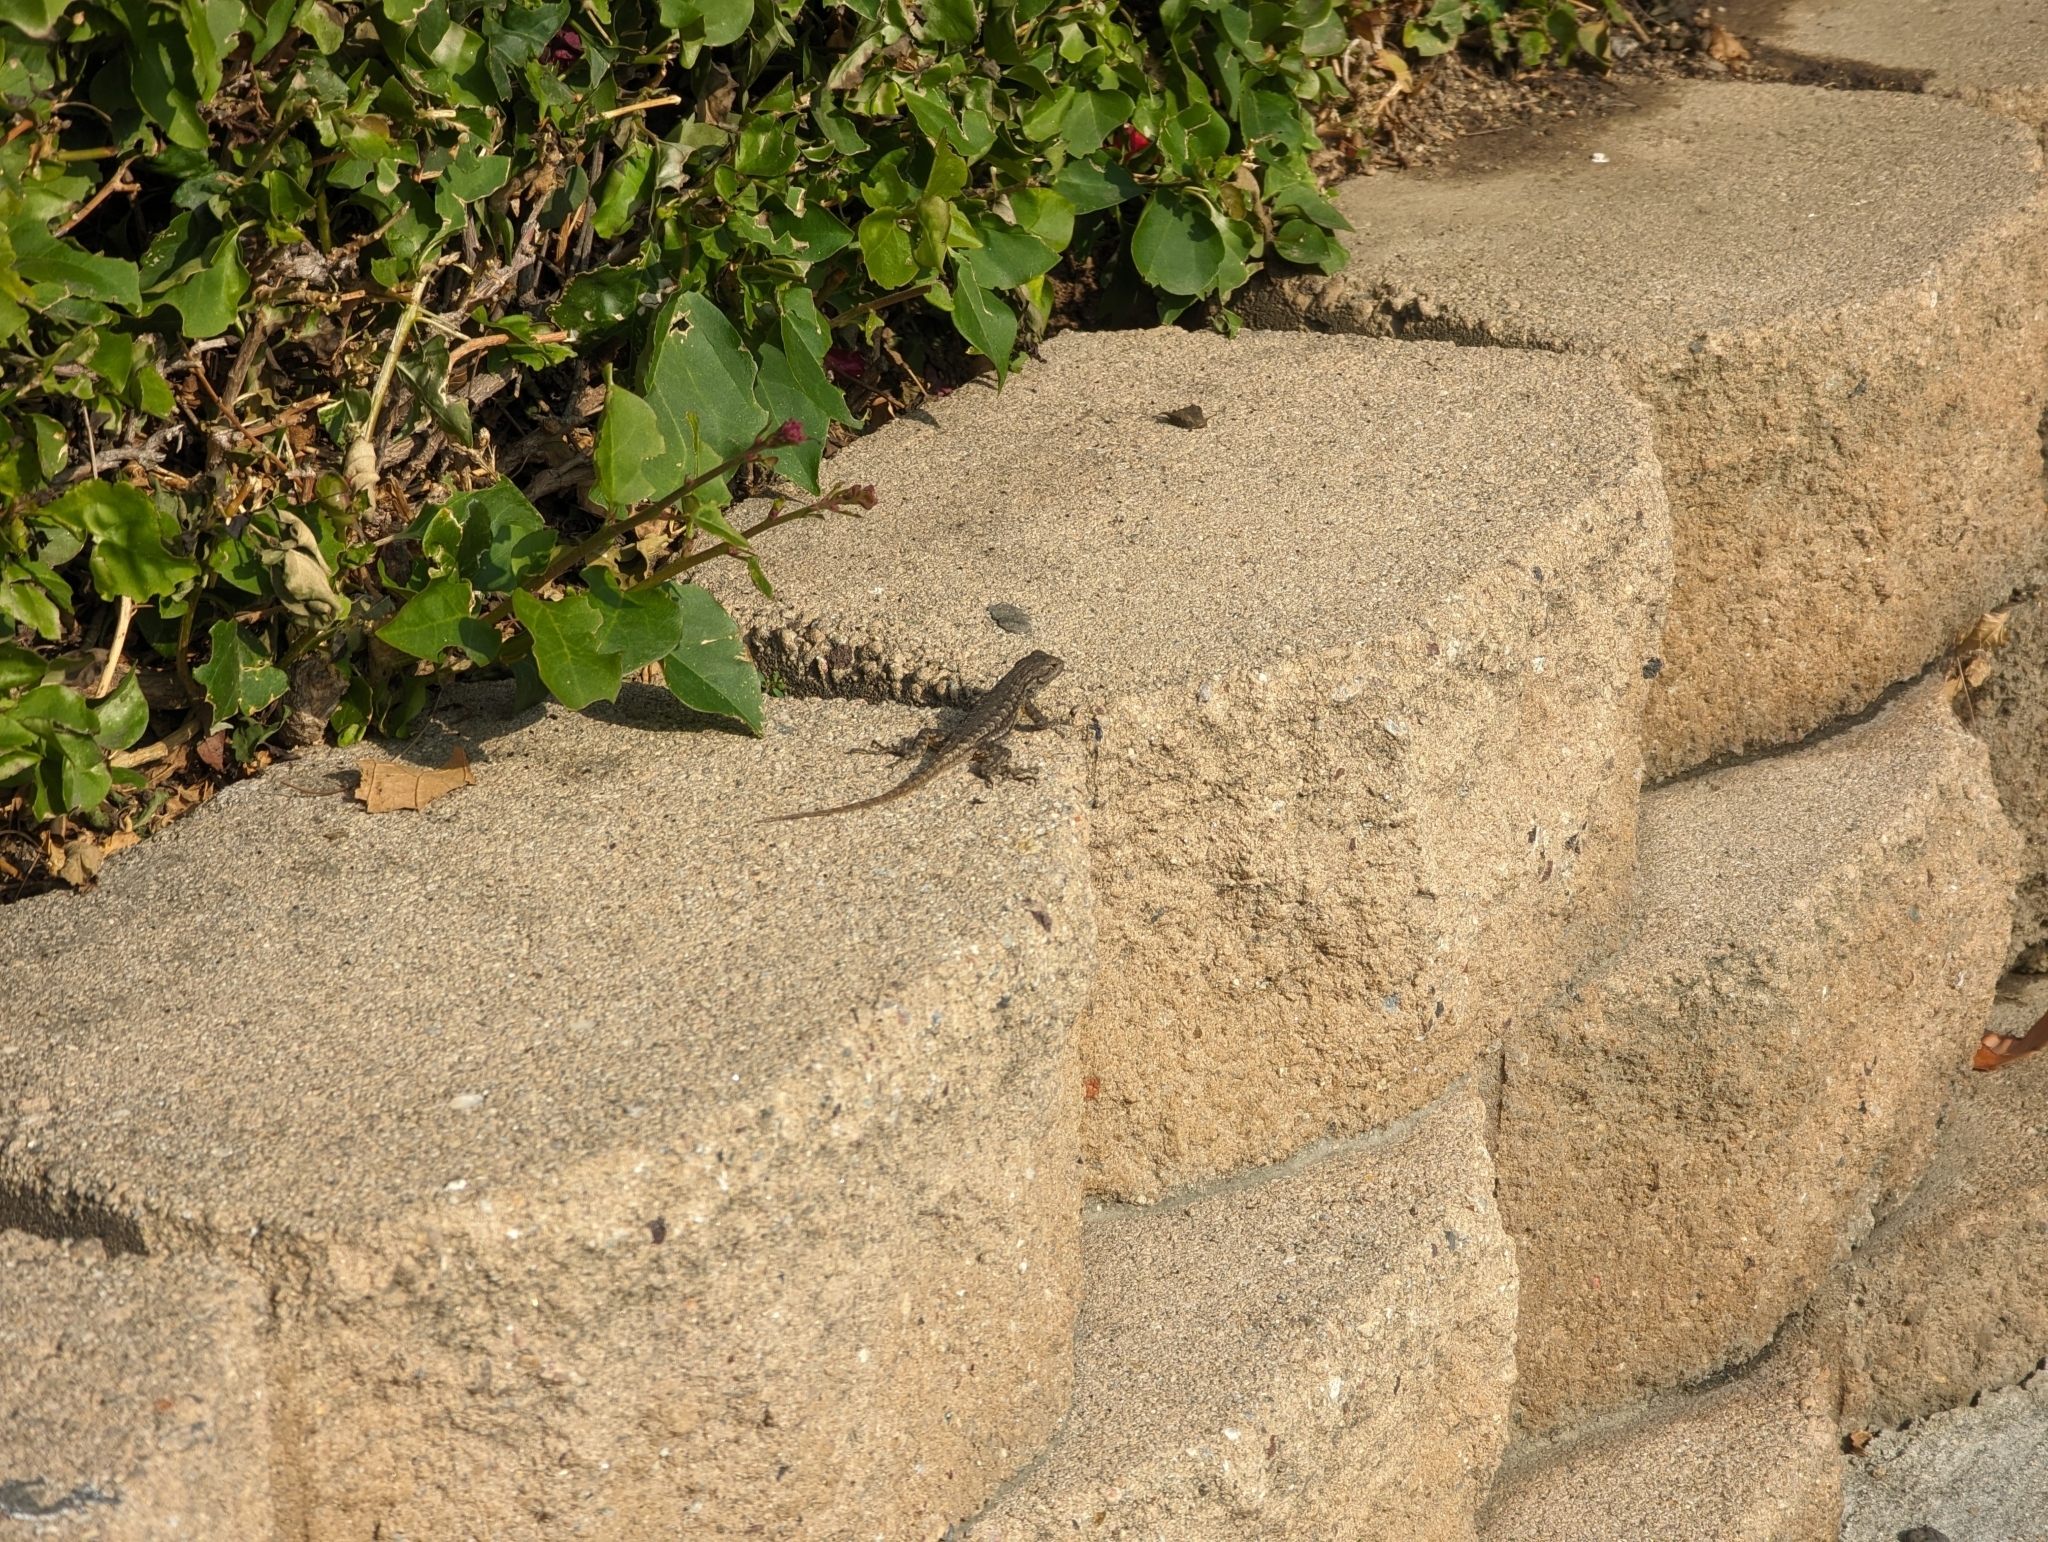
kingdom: Animalia
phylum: Chordata
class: Squamata
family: Phrynosomatidae
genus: Sceloporus
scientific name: Sceloporus occidentalis
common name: Western fence lizard
